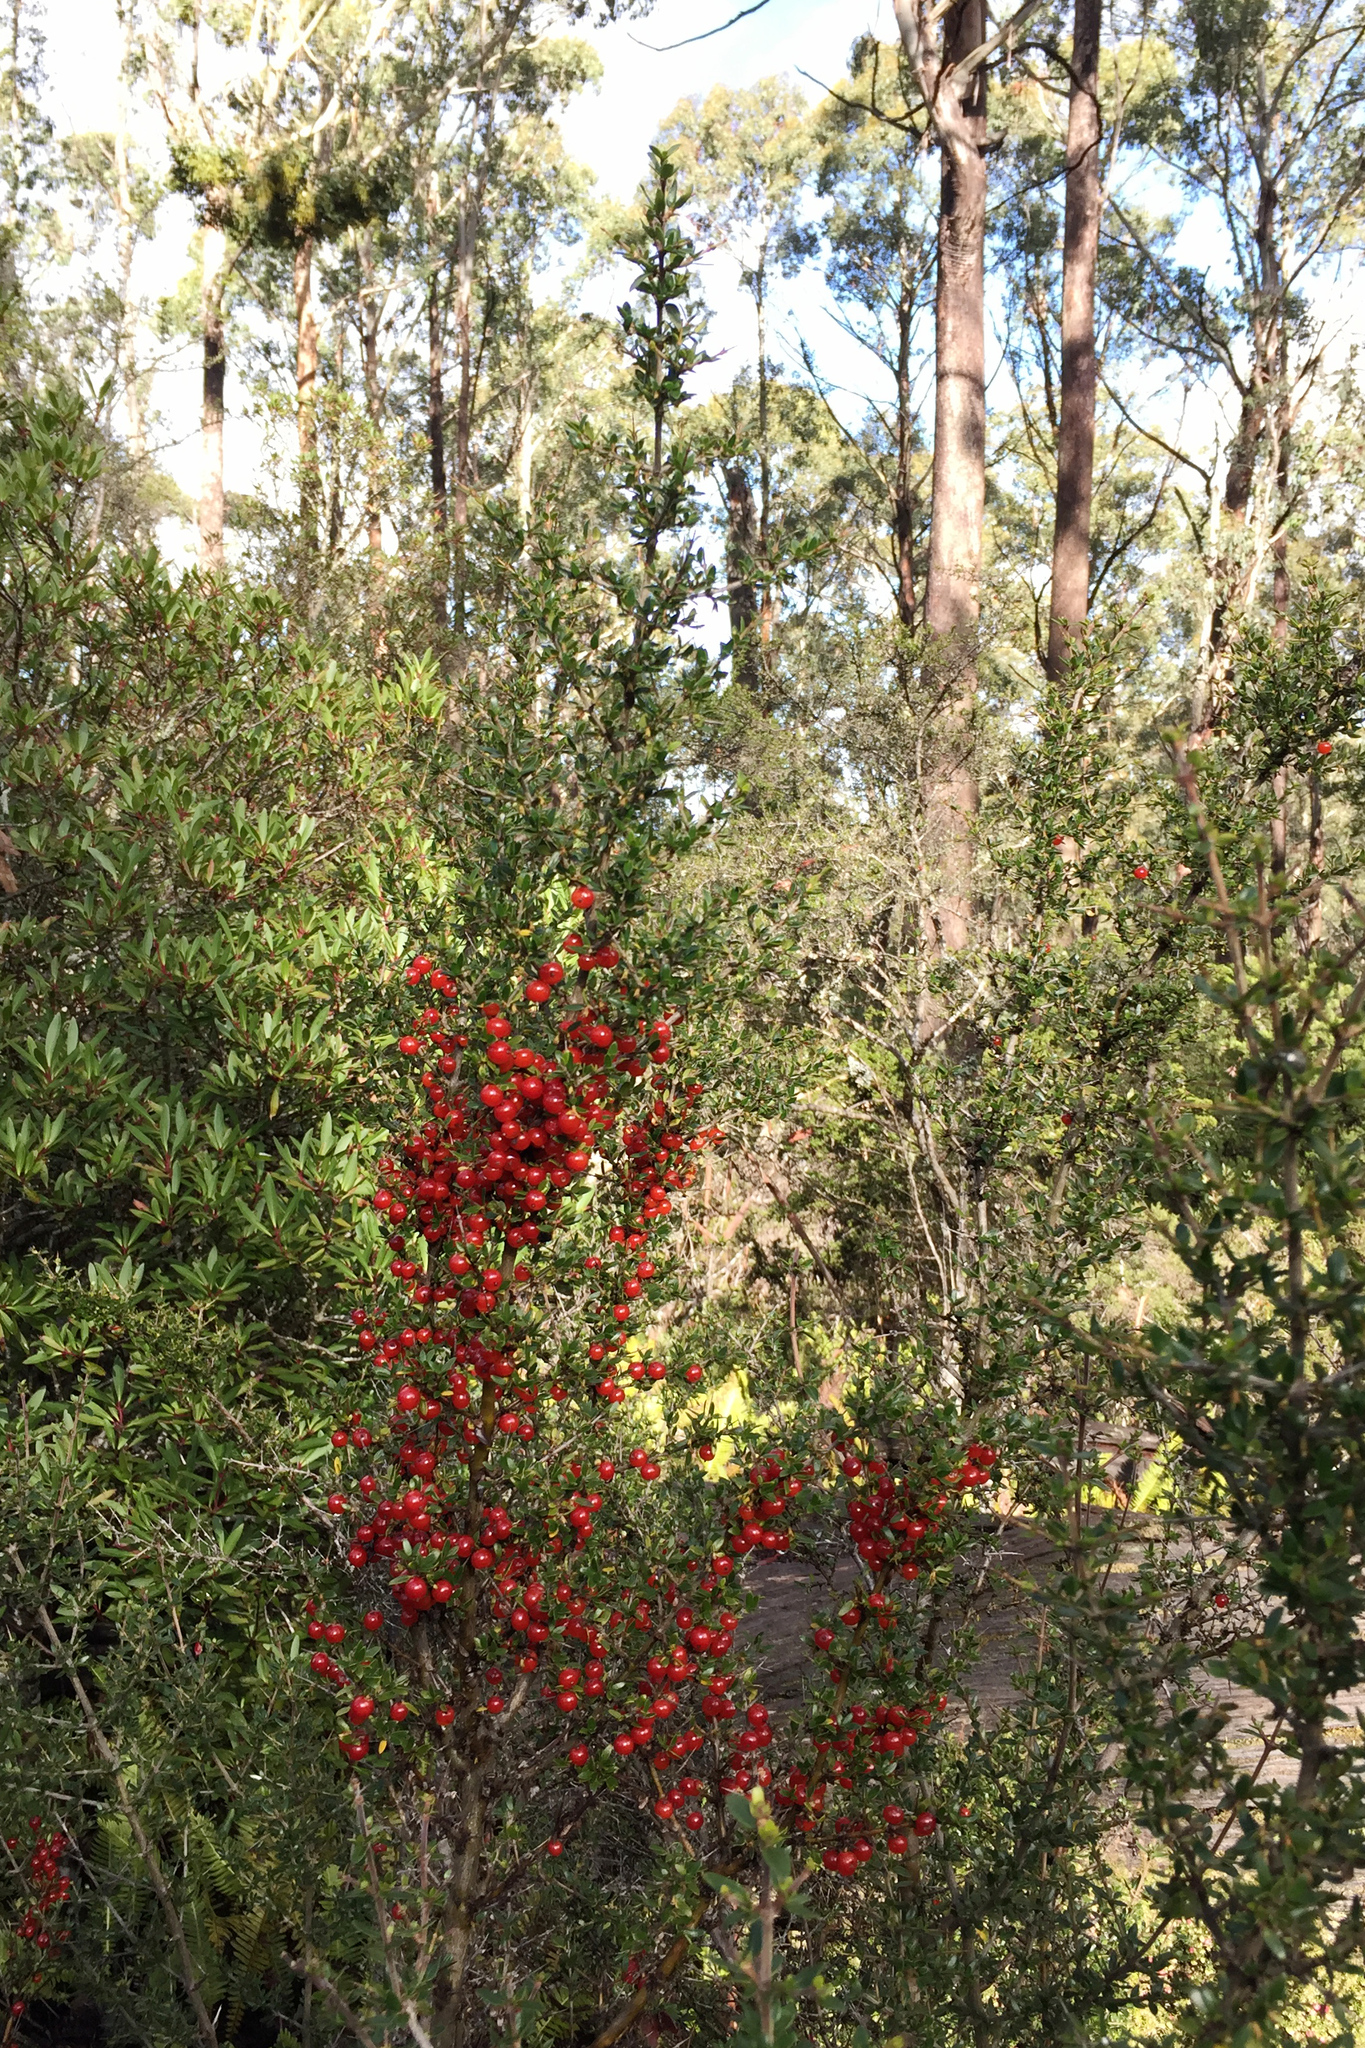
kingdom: Plantae
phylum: Tracheophyta
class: Magnoliopsida
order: Gentianales
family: Rubiaceae
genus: Coprosma
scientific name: Coprosma nitida
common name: Shining coprosma
